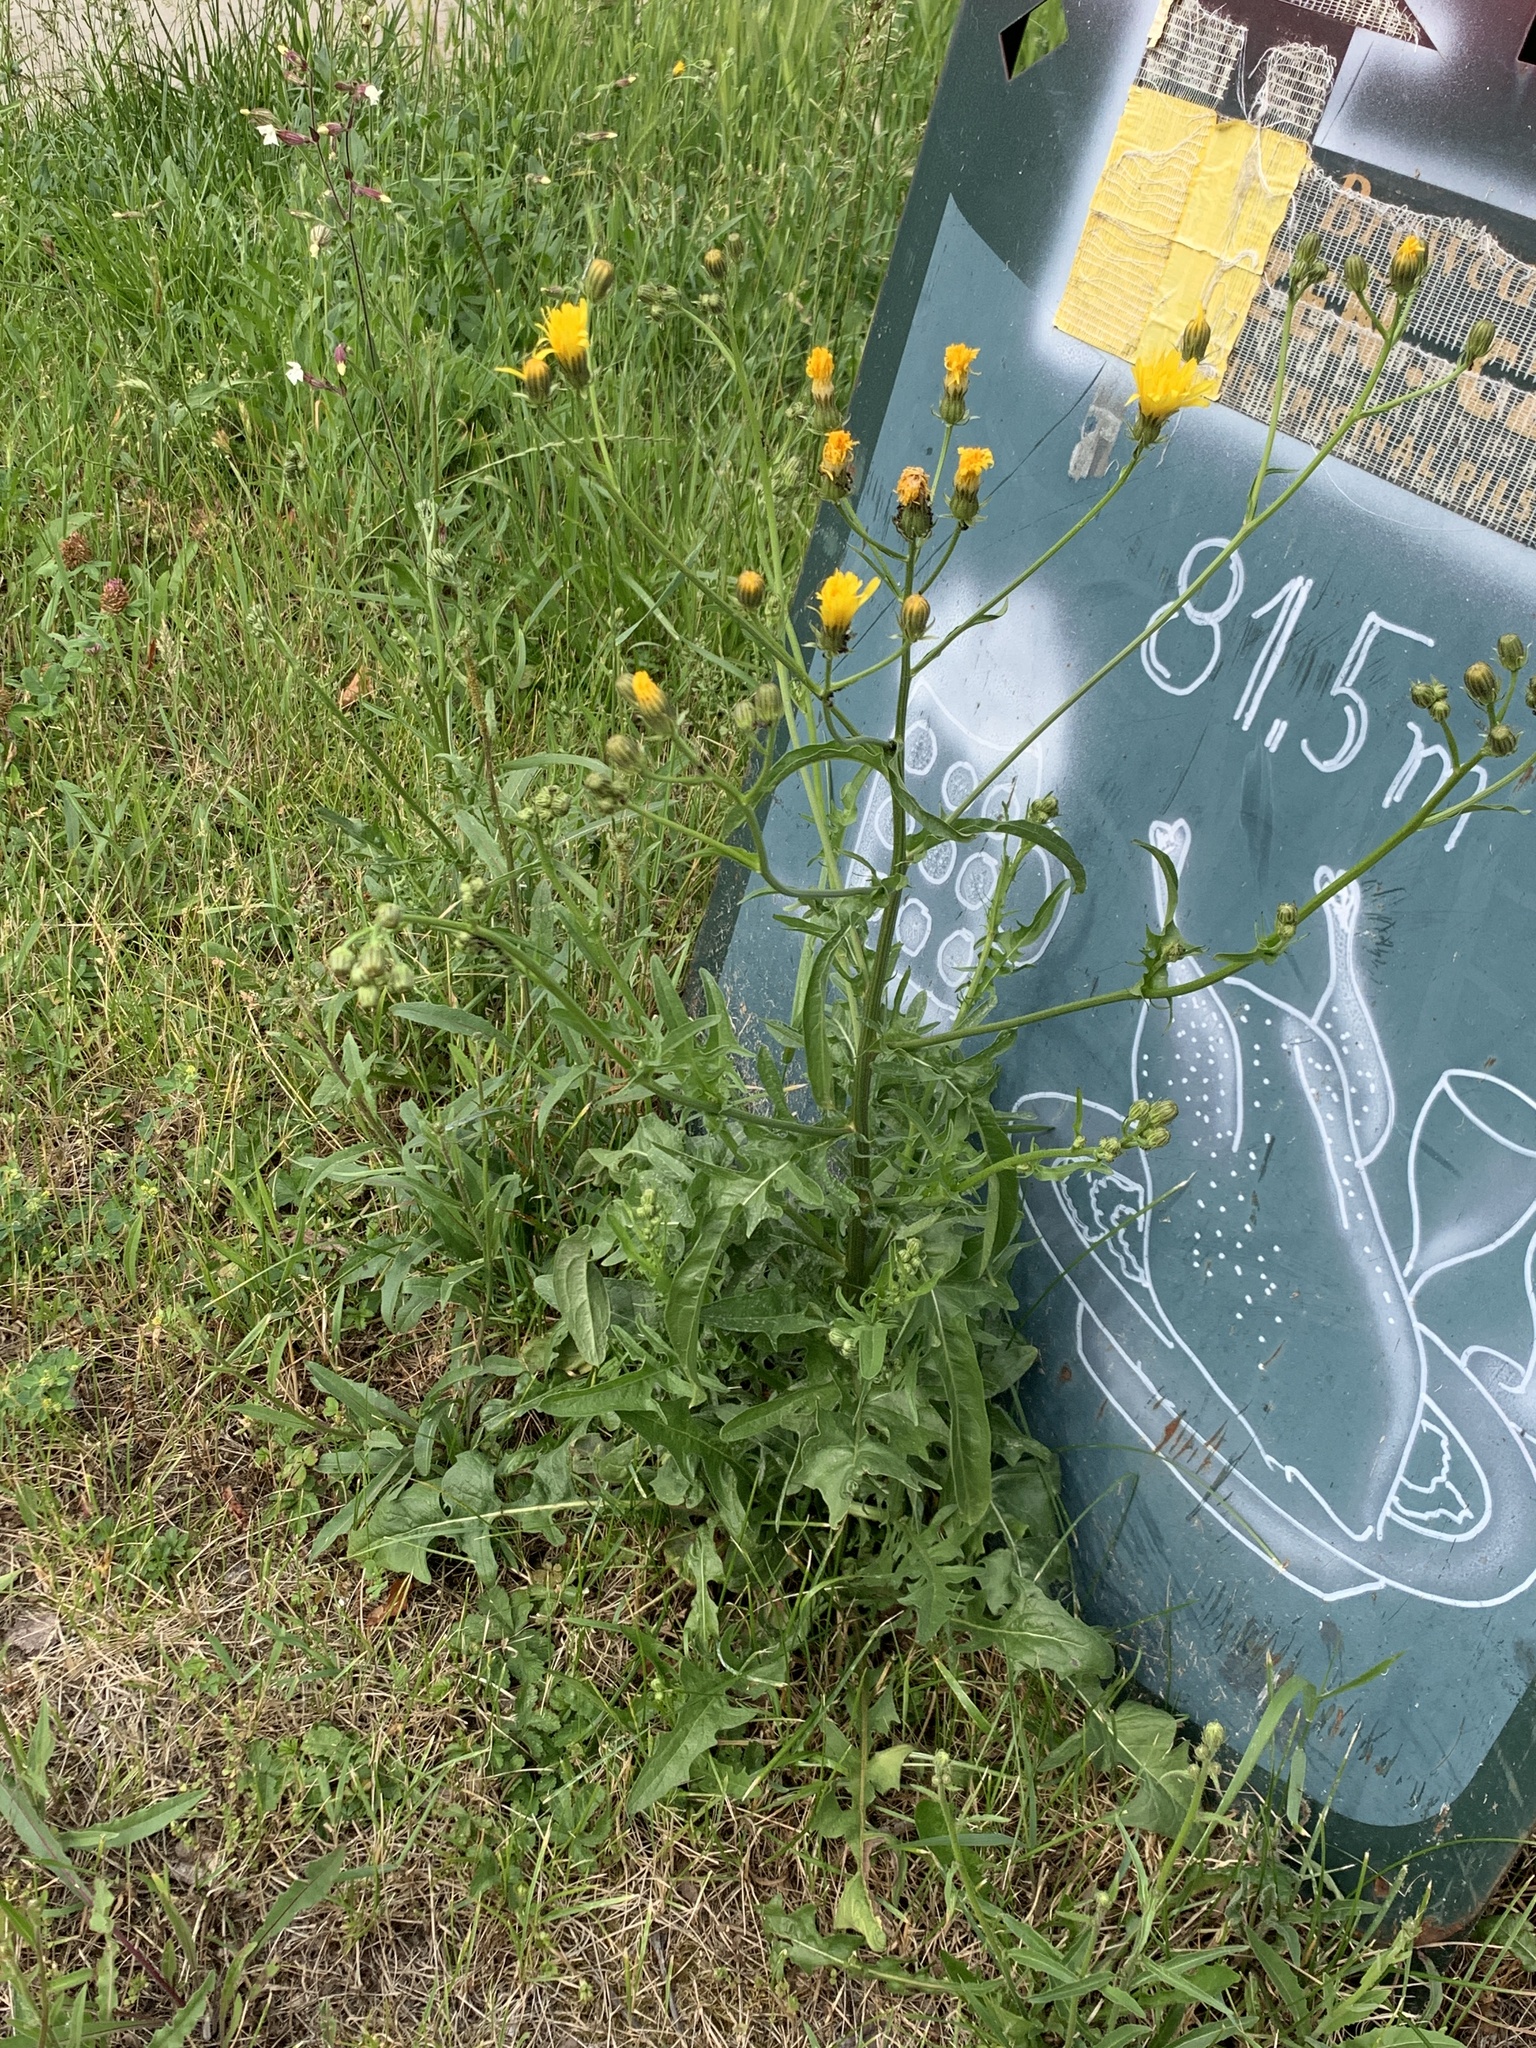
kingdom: Plantae
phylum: Tracheophyta
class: Magnoliopsida
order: Asterales
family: Asteraceae
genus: Crepis
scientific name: Crepis biennis
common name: Rough hawk's-beard
